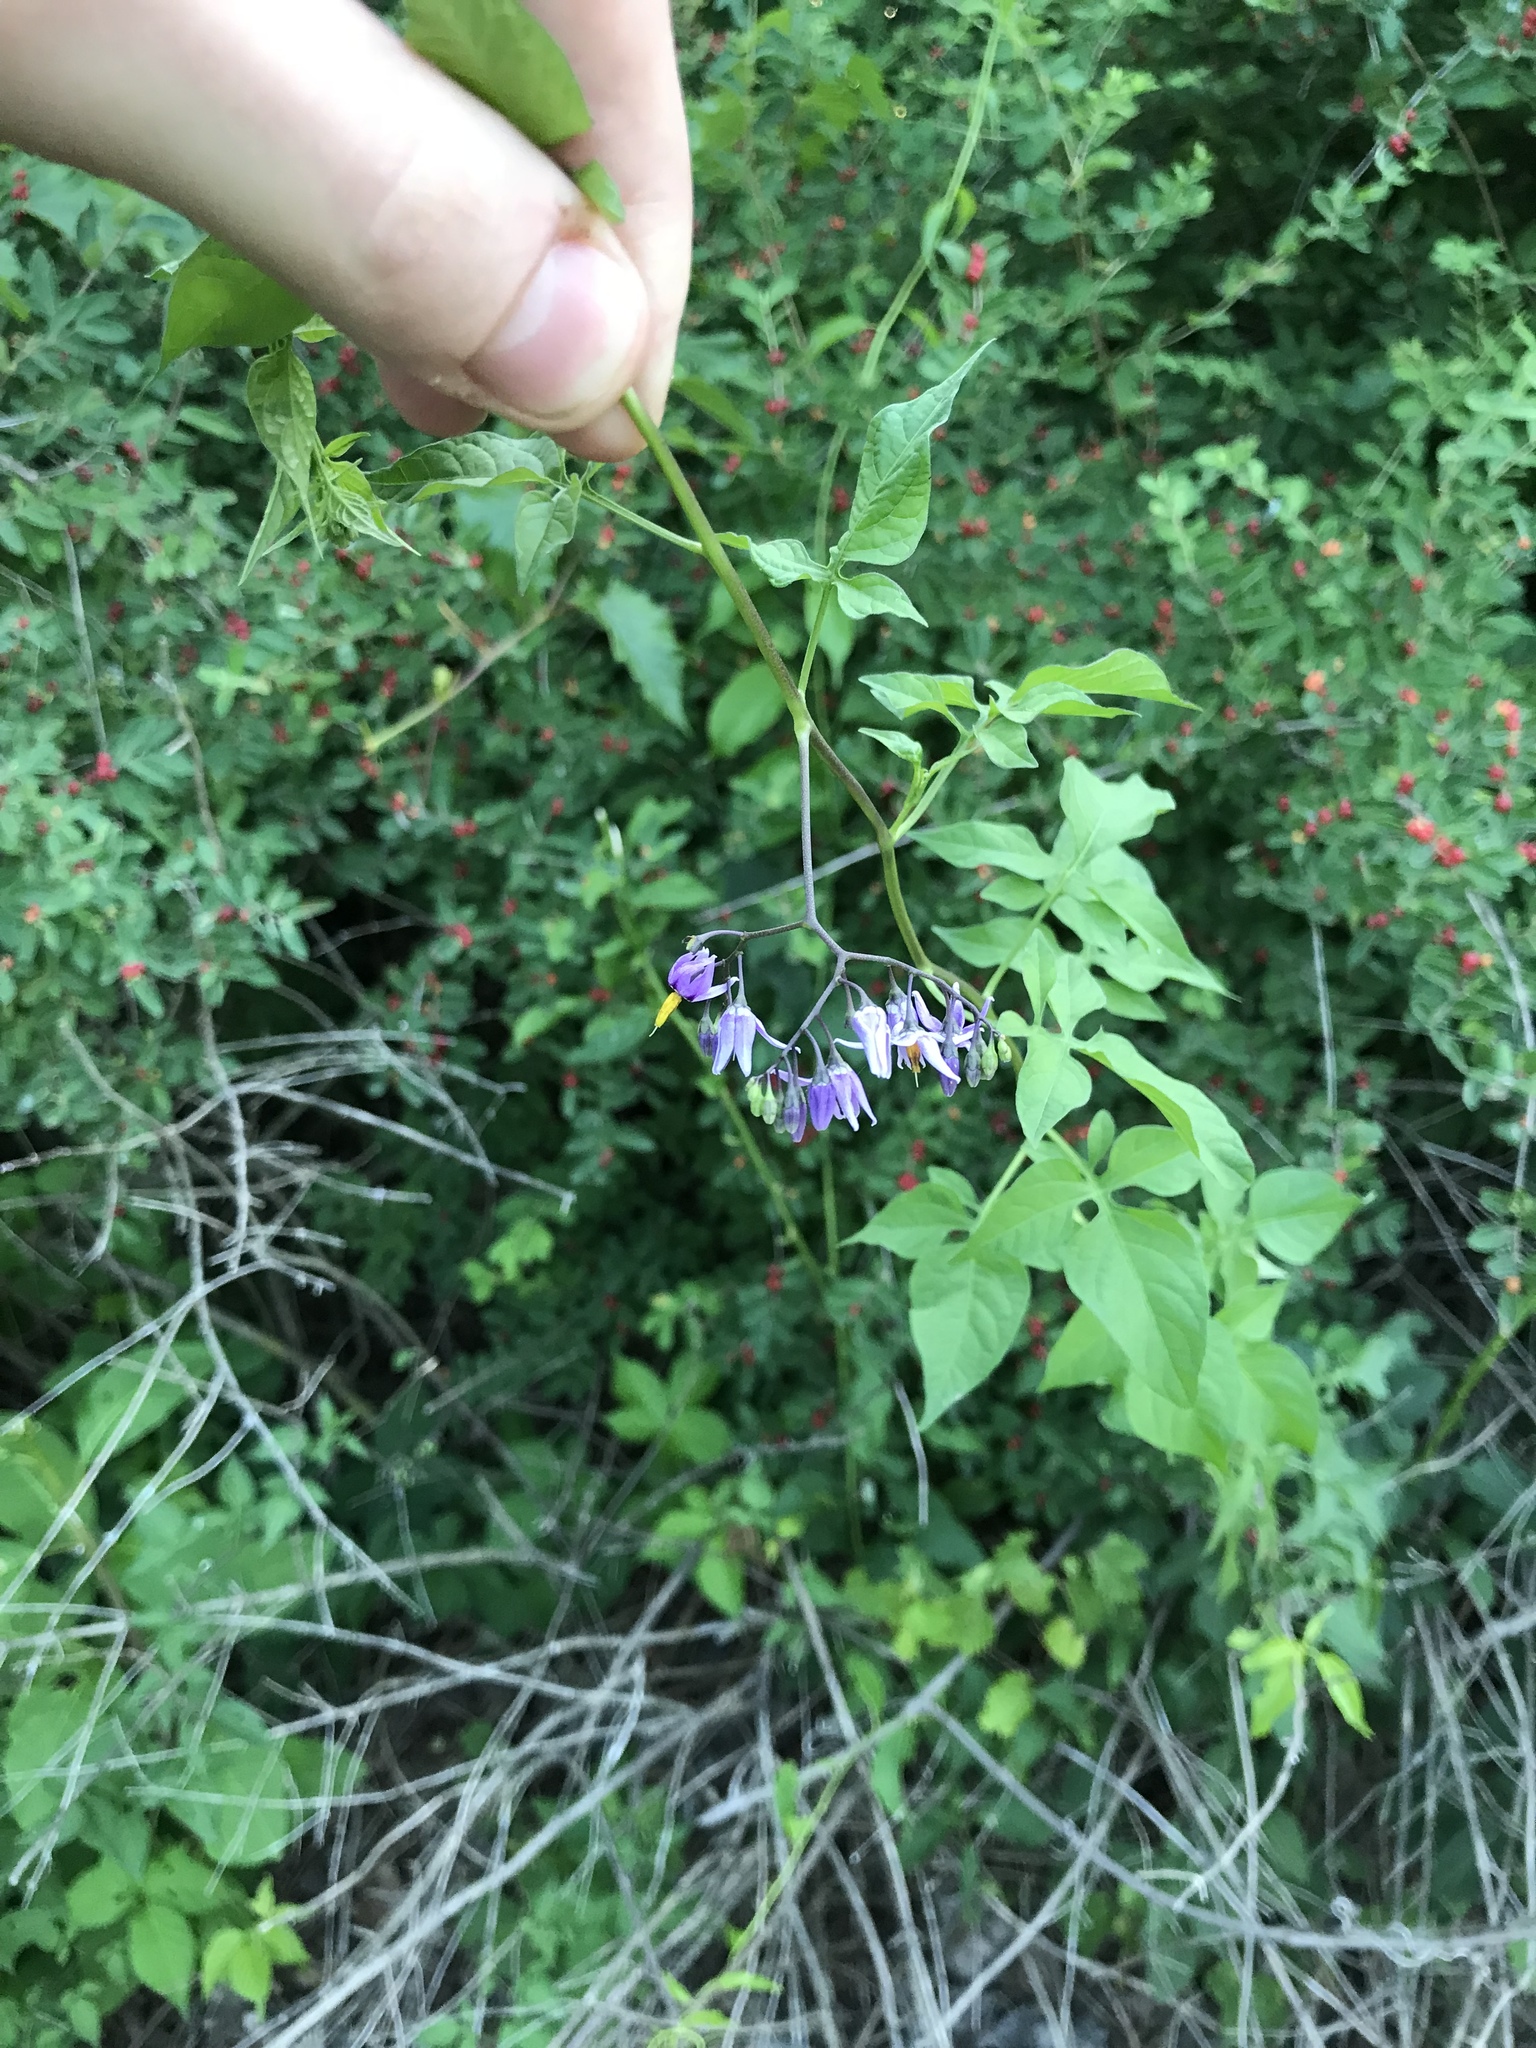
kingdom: Plantae
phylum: Tracheophyta
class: Magnoliopsida
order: Solanales
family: Solanaceae
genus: Solanum
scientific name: Solanum dulcamara
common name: Climbing nightshade
